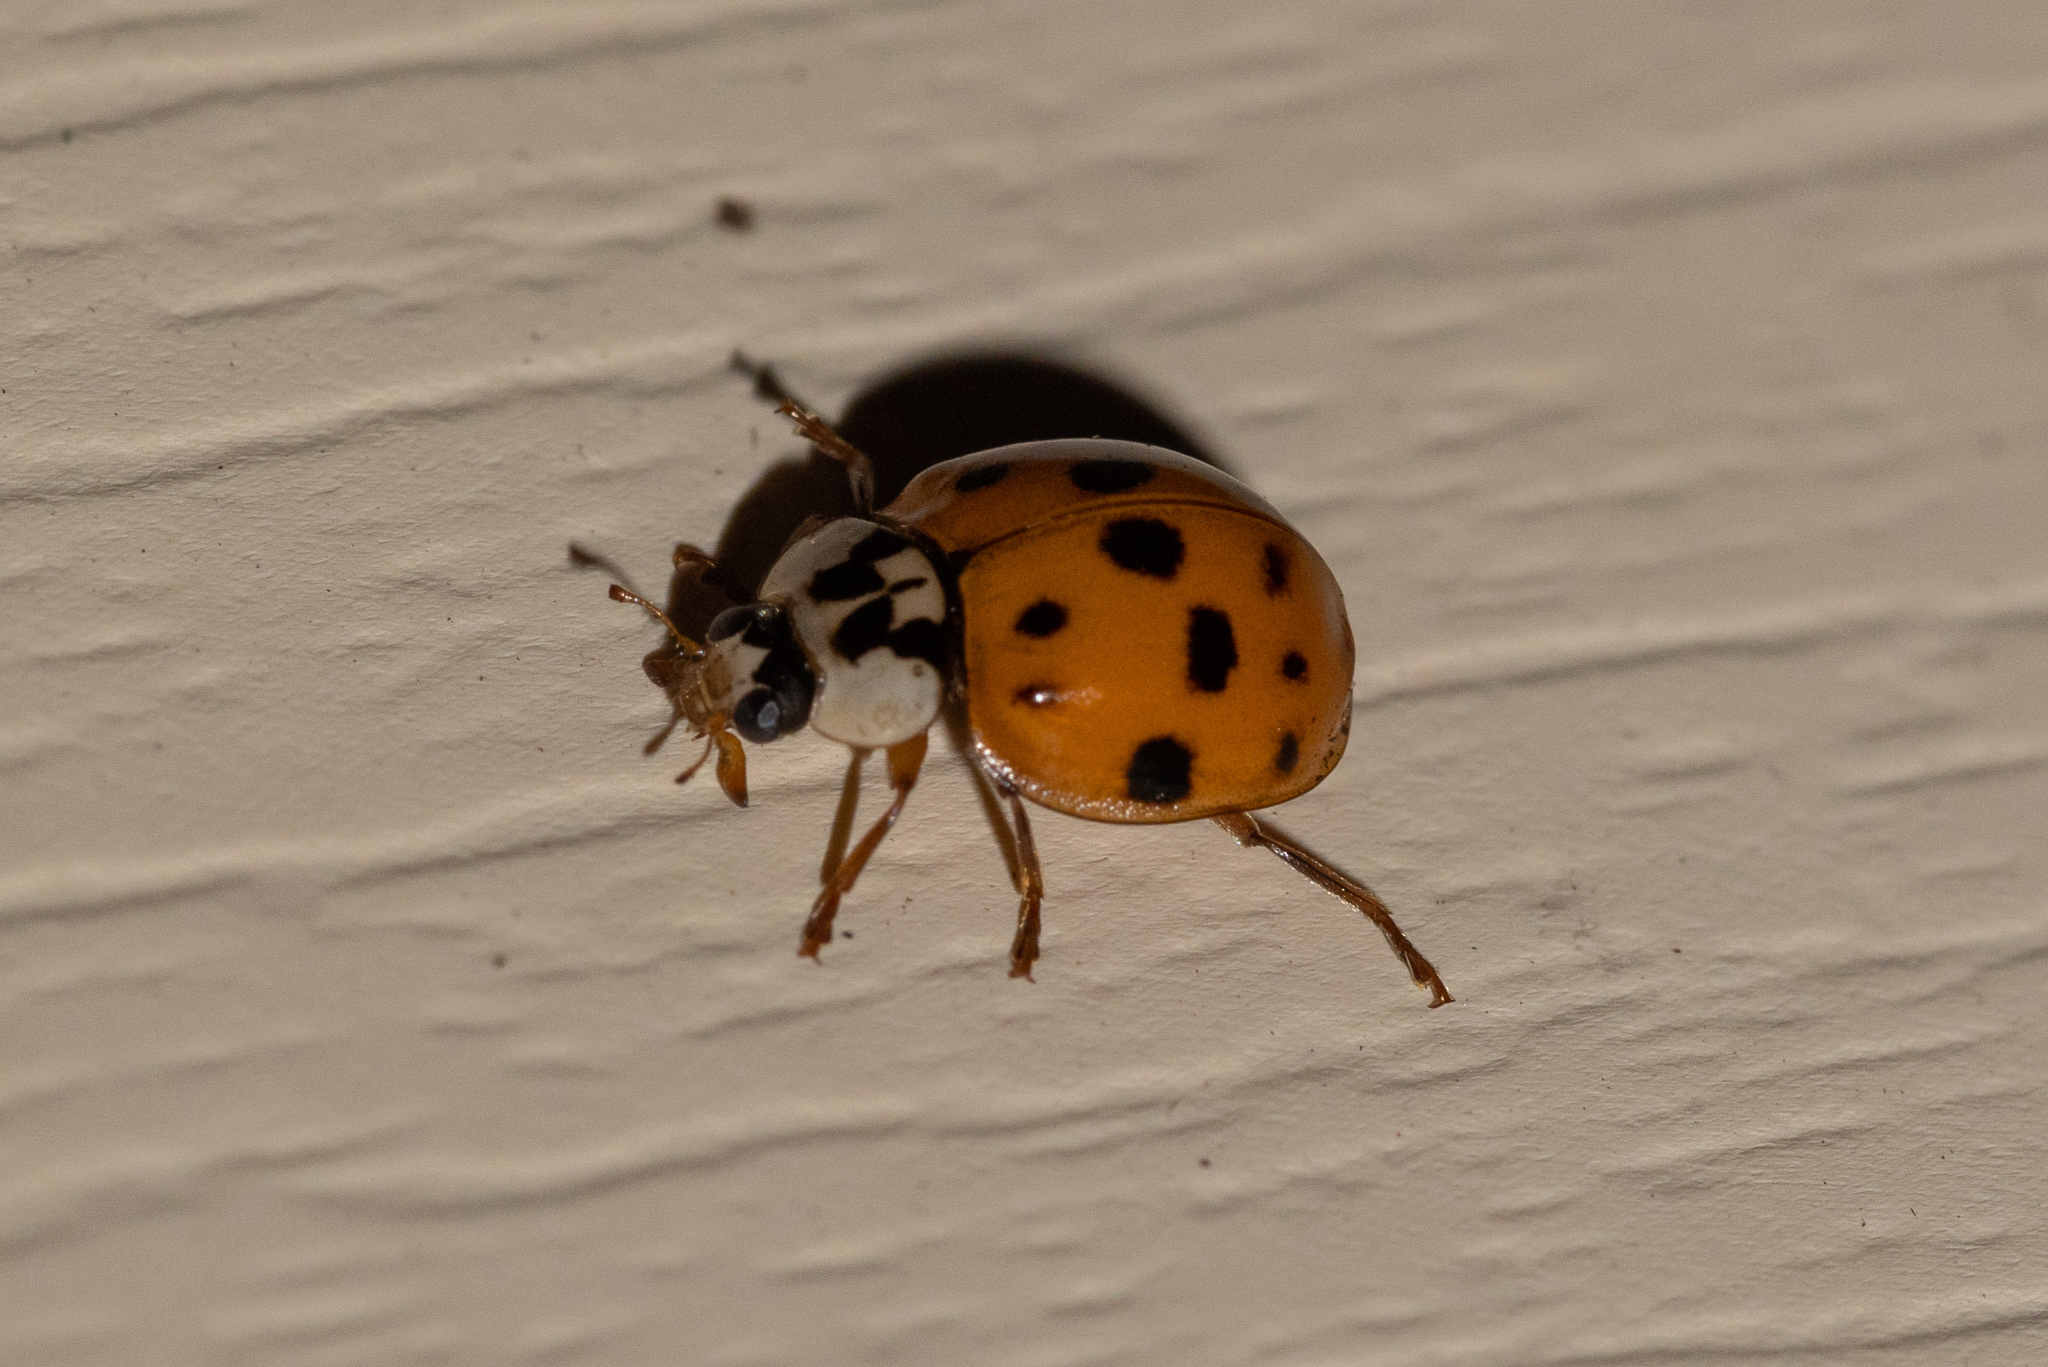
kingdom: Animalia
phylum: Arthropoda
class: Insecta
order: Coleoptera
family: Coccinellidae
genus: Harmonia
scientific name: Harmonia axyridis
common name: Harlequin ladybird
